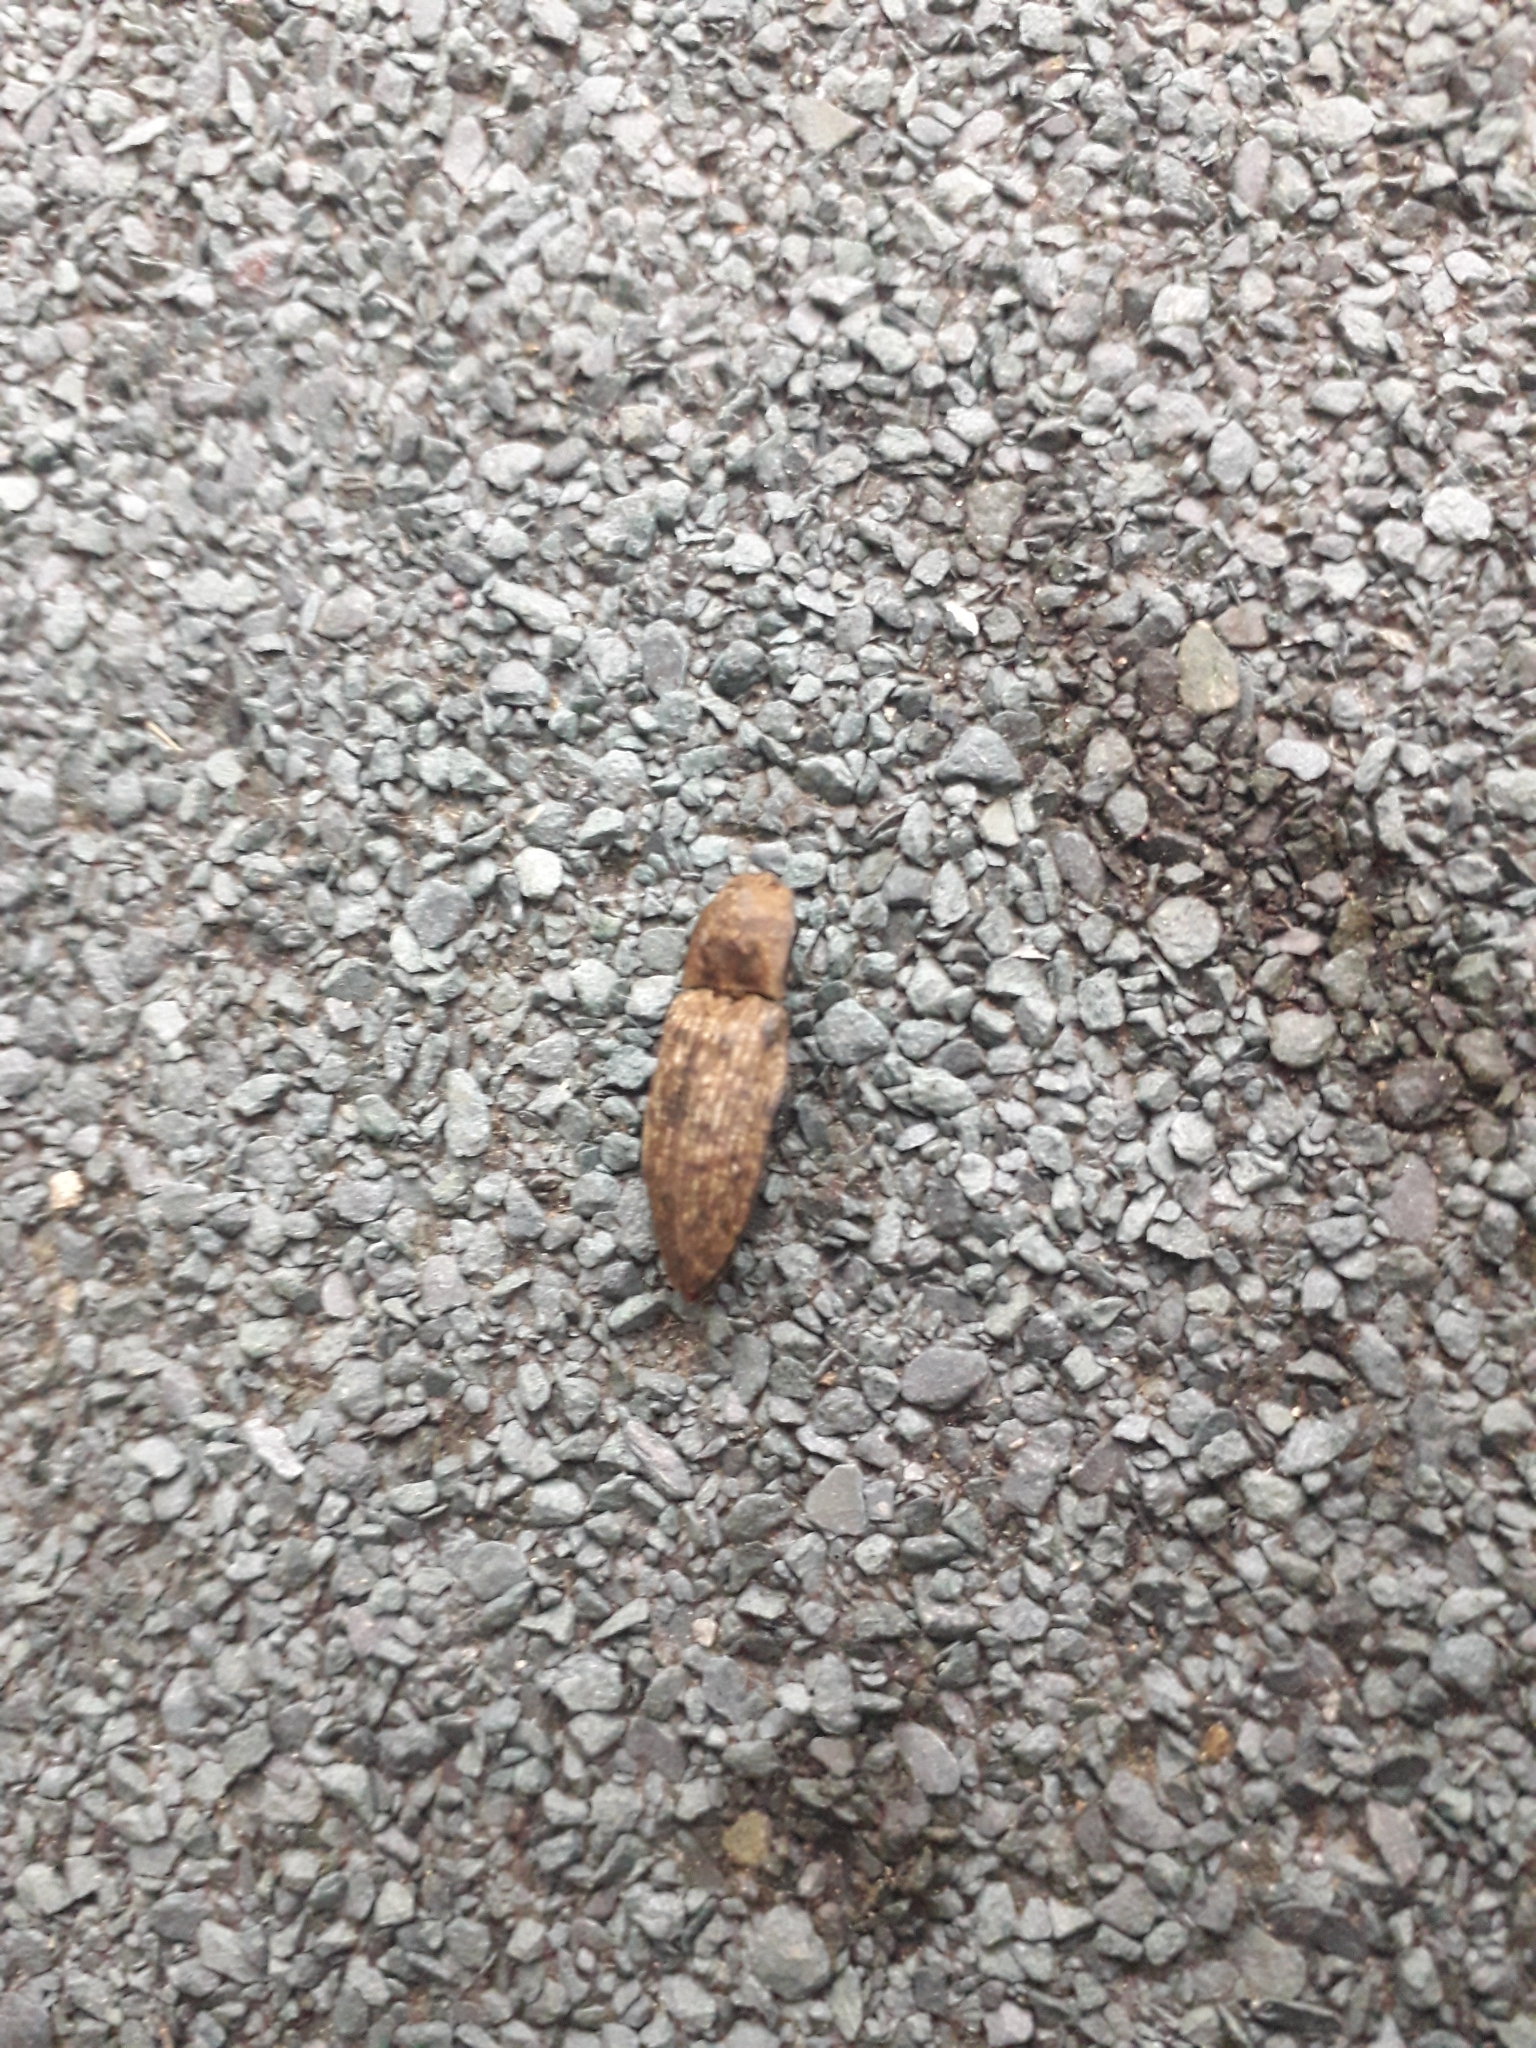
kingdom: Animalia
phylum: Arthropoda
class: Insecta
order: Coleoptera
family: Elateridae
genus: Agrypnus
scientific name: Agrypnus murinus
